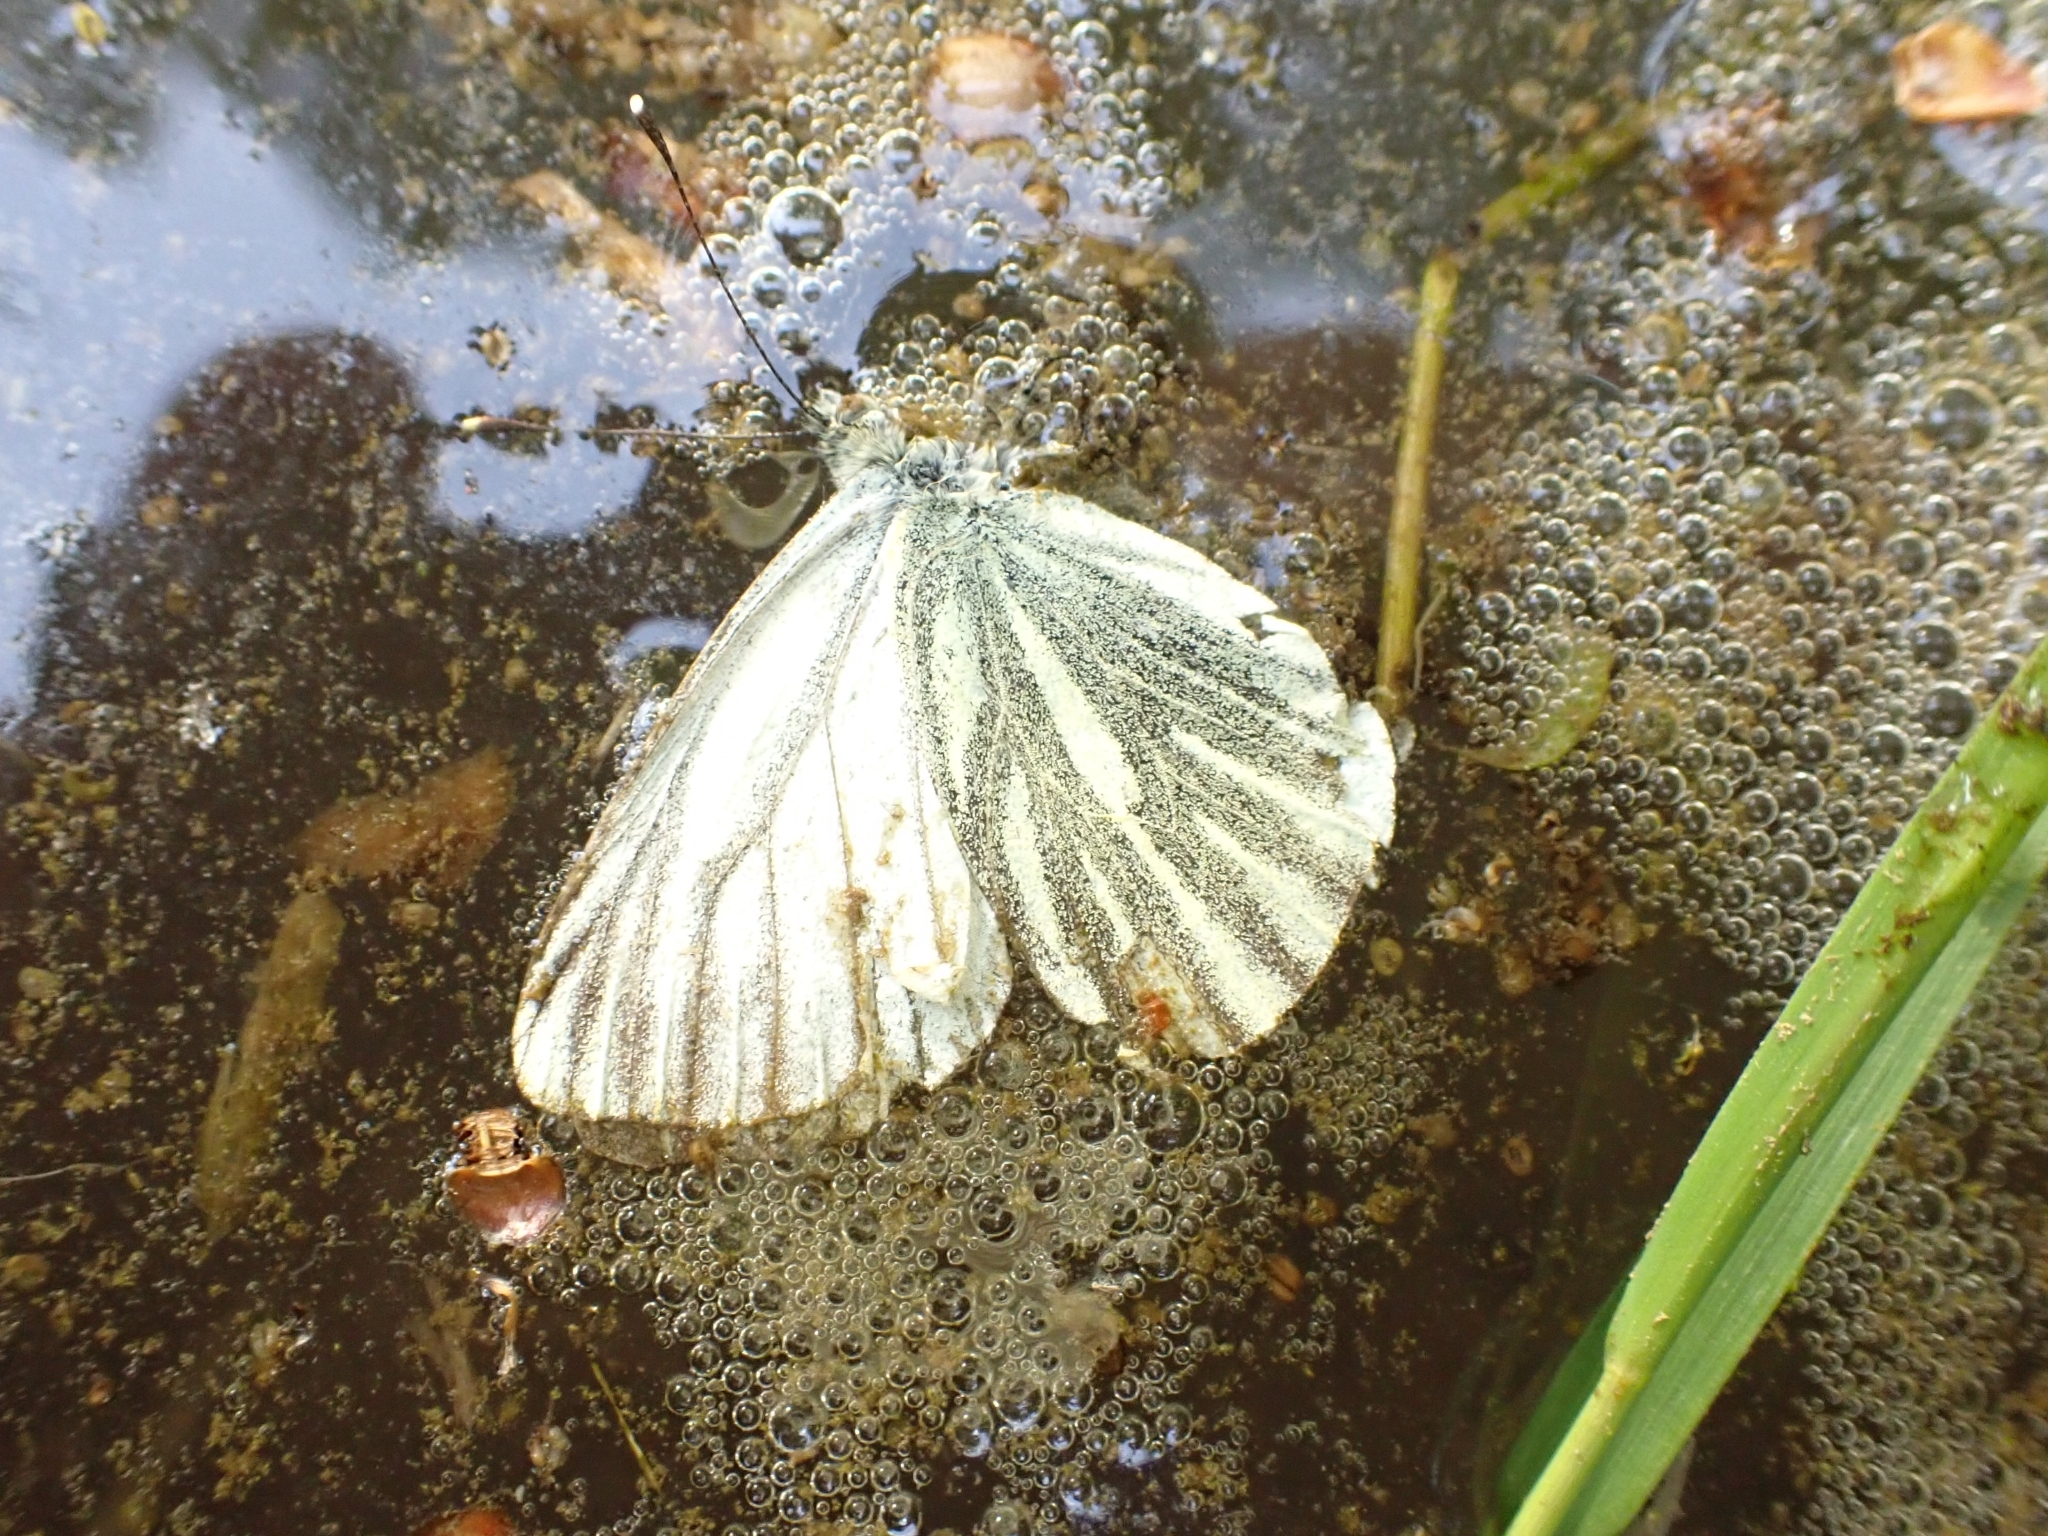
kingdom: Animalia
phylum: Arthropoda
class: Insecta
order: Lepidoptera
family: Pieridae
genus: Pieris
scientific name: Pieris napi
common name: Green-veined white
